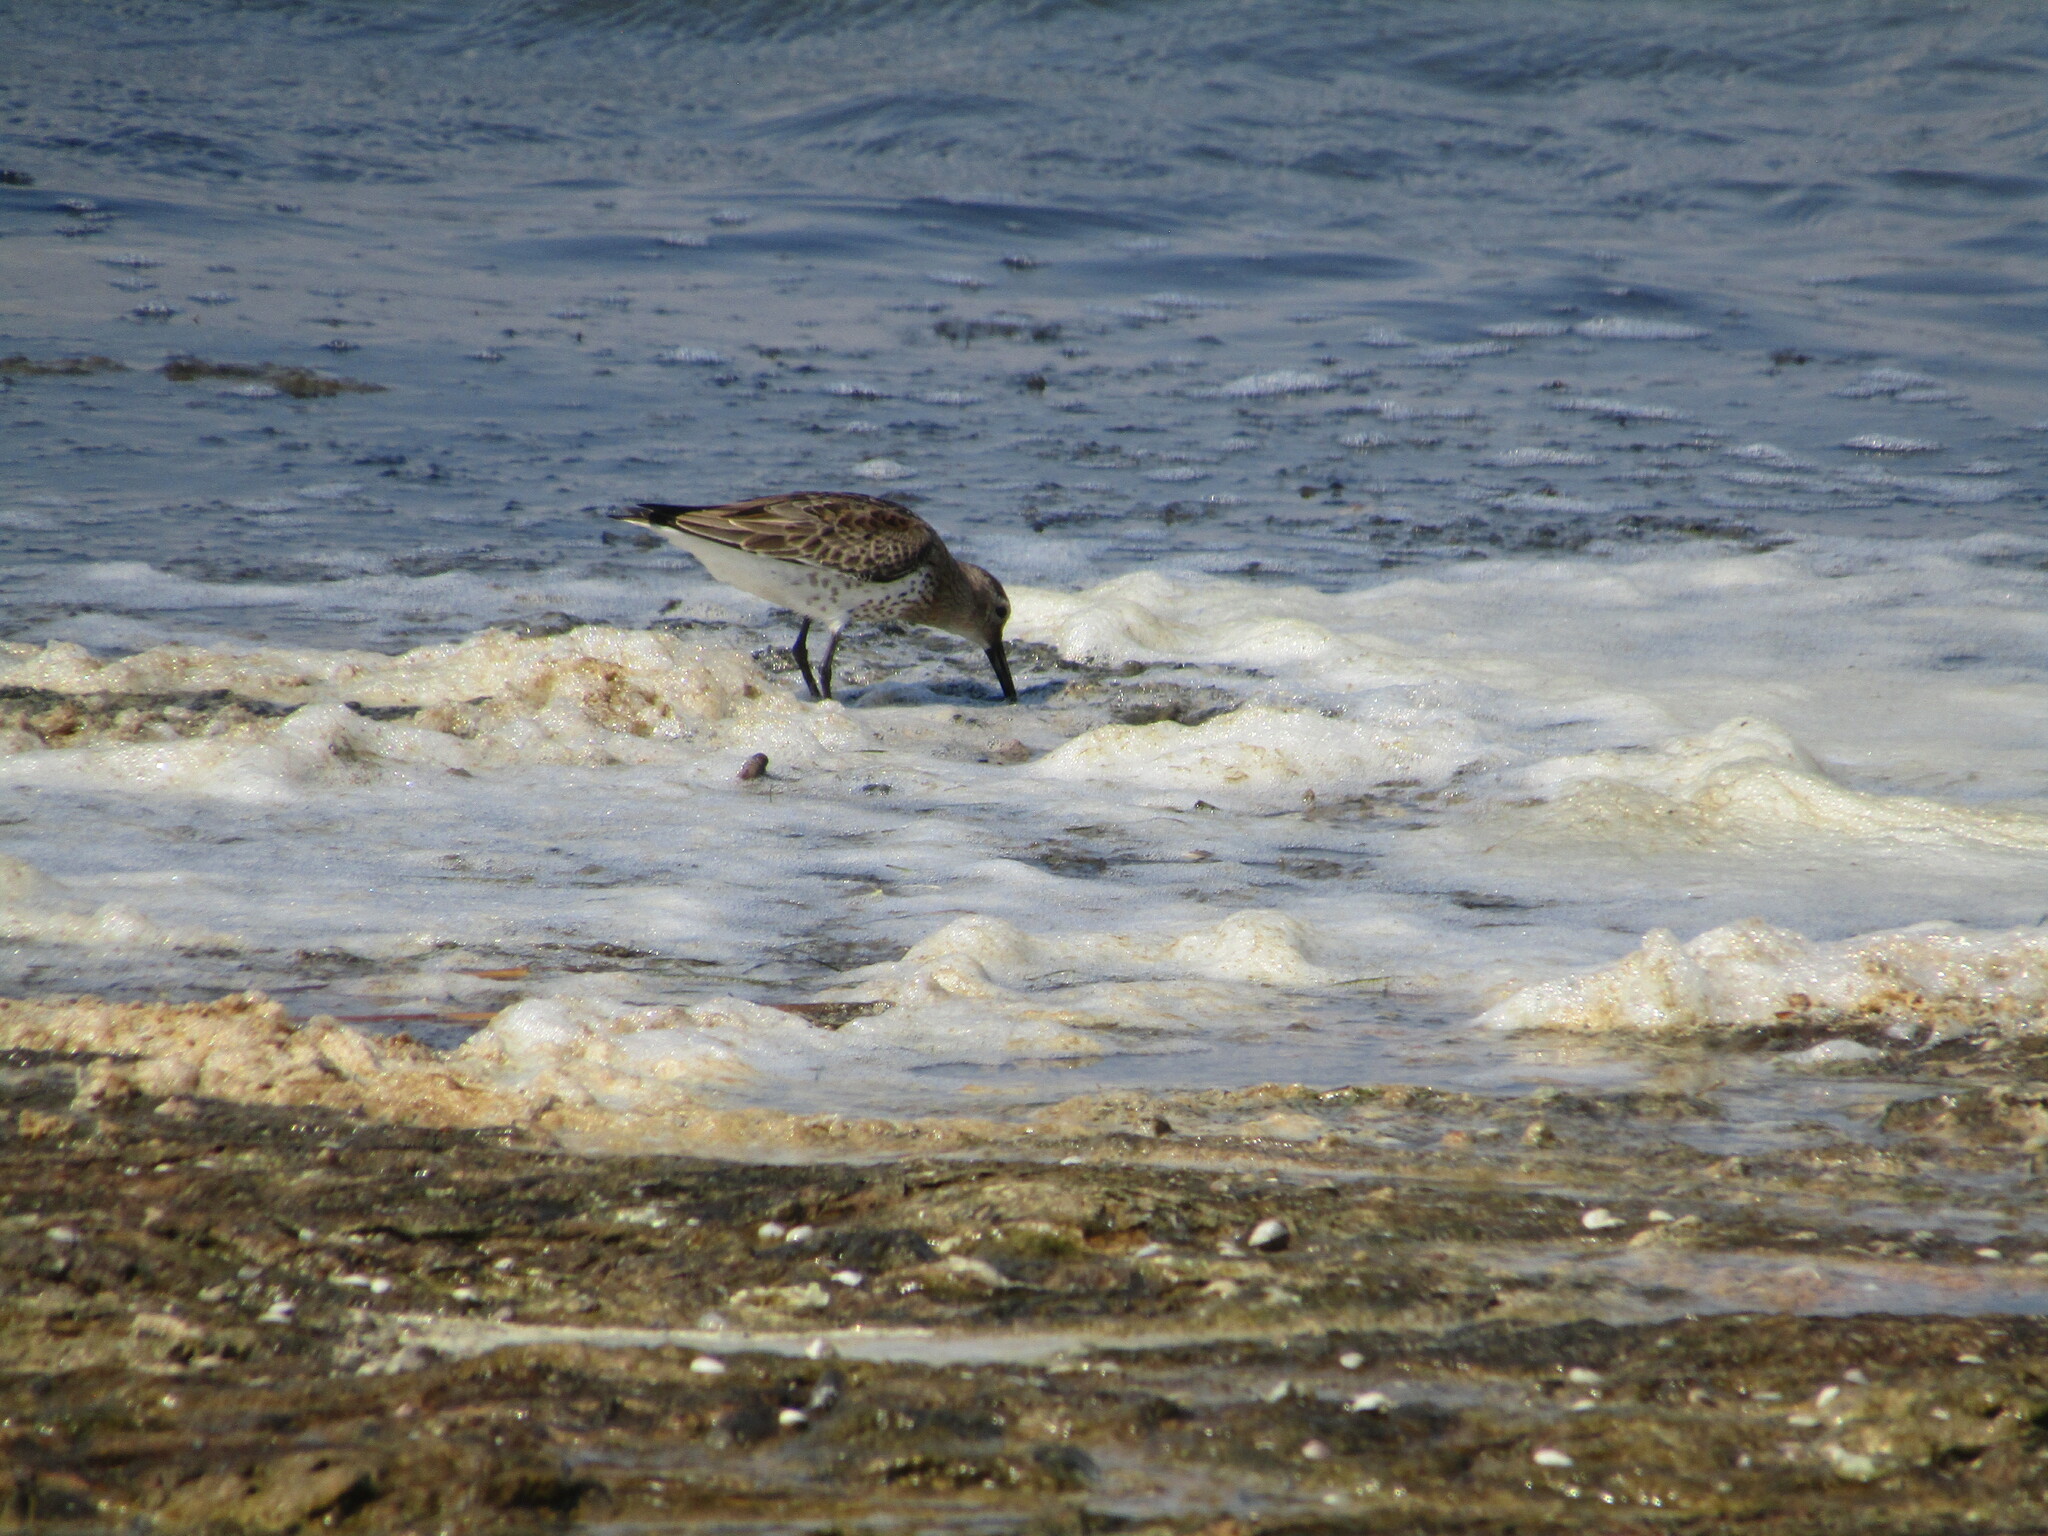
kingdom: Animalia
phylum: Chordata
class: Aves
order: Charadriiformes
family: Scolopacidae
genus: Calidris
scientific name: Calidris alpina
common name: Dunlin
